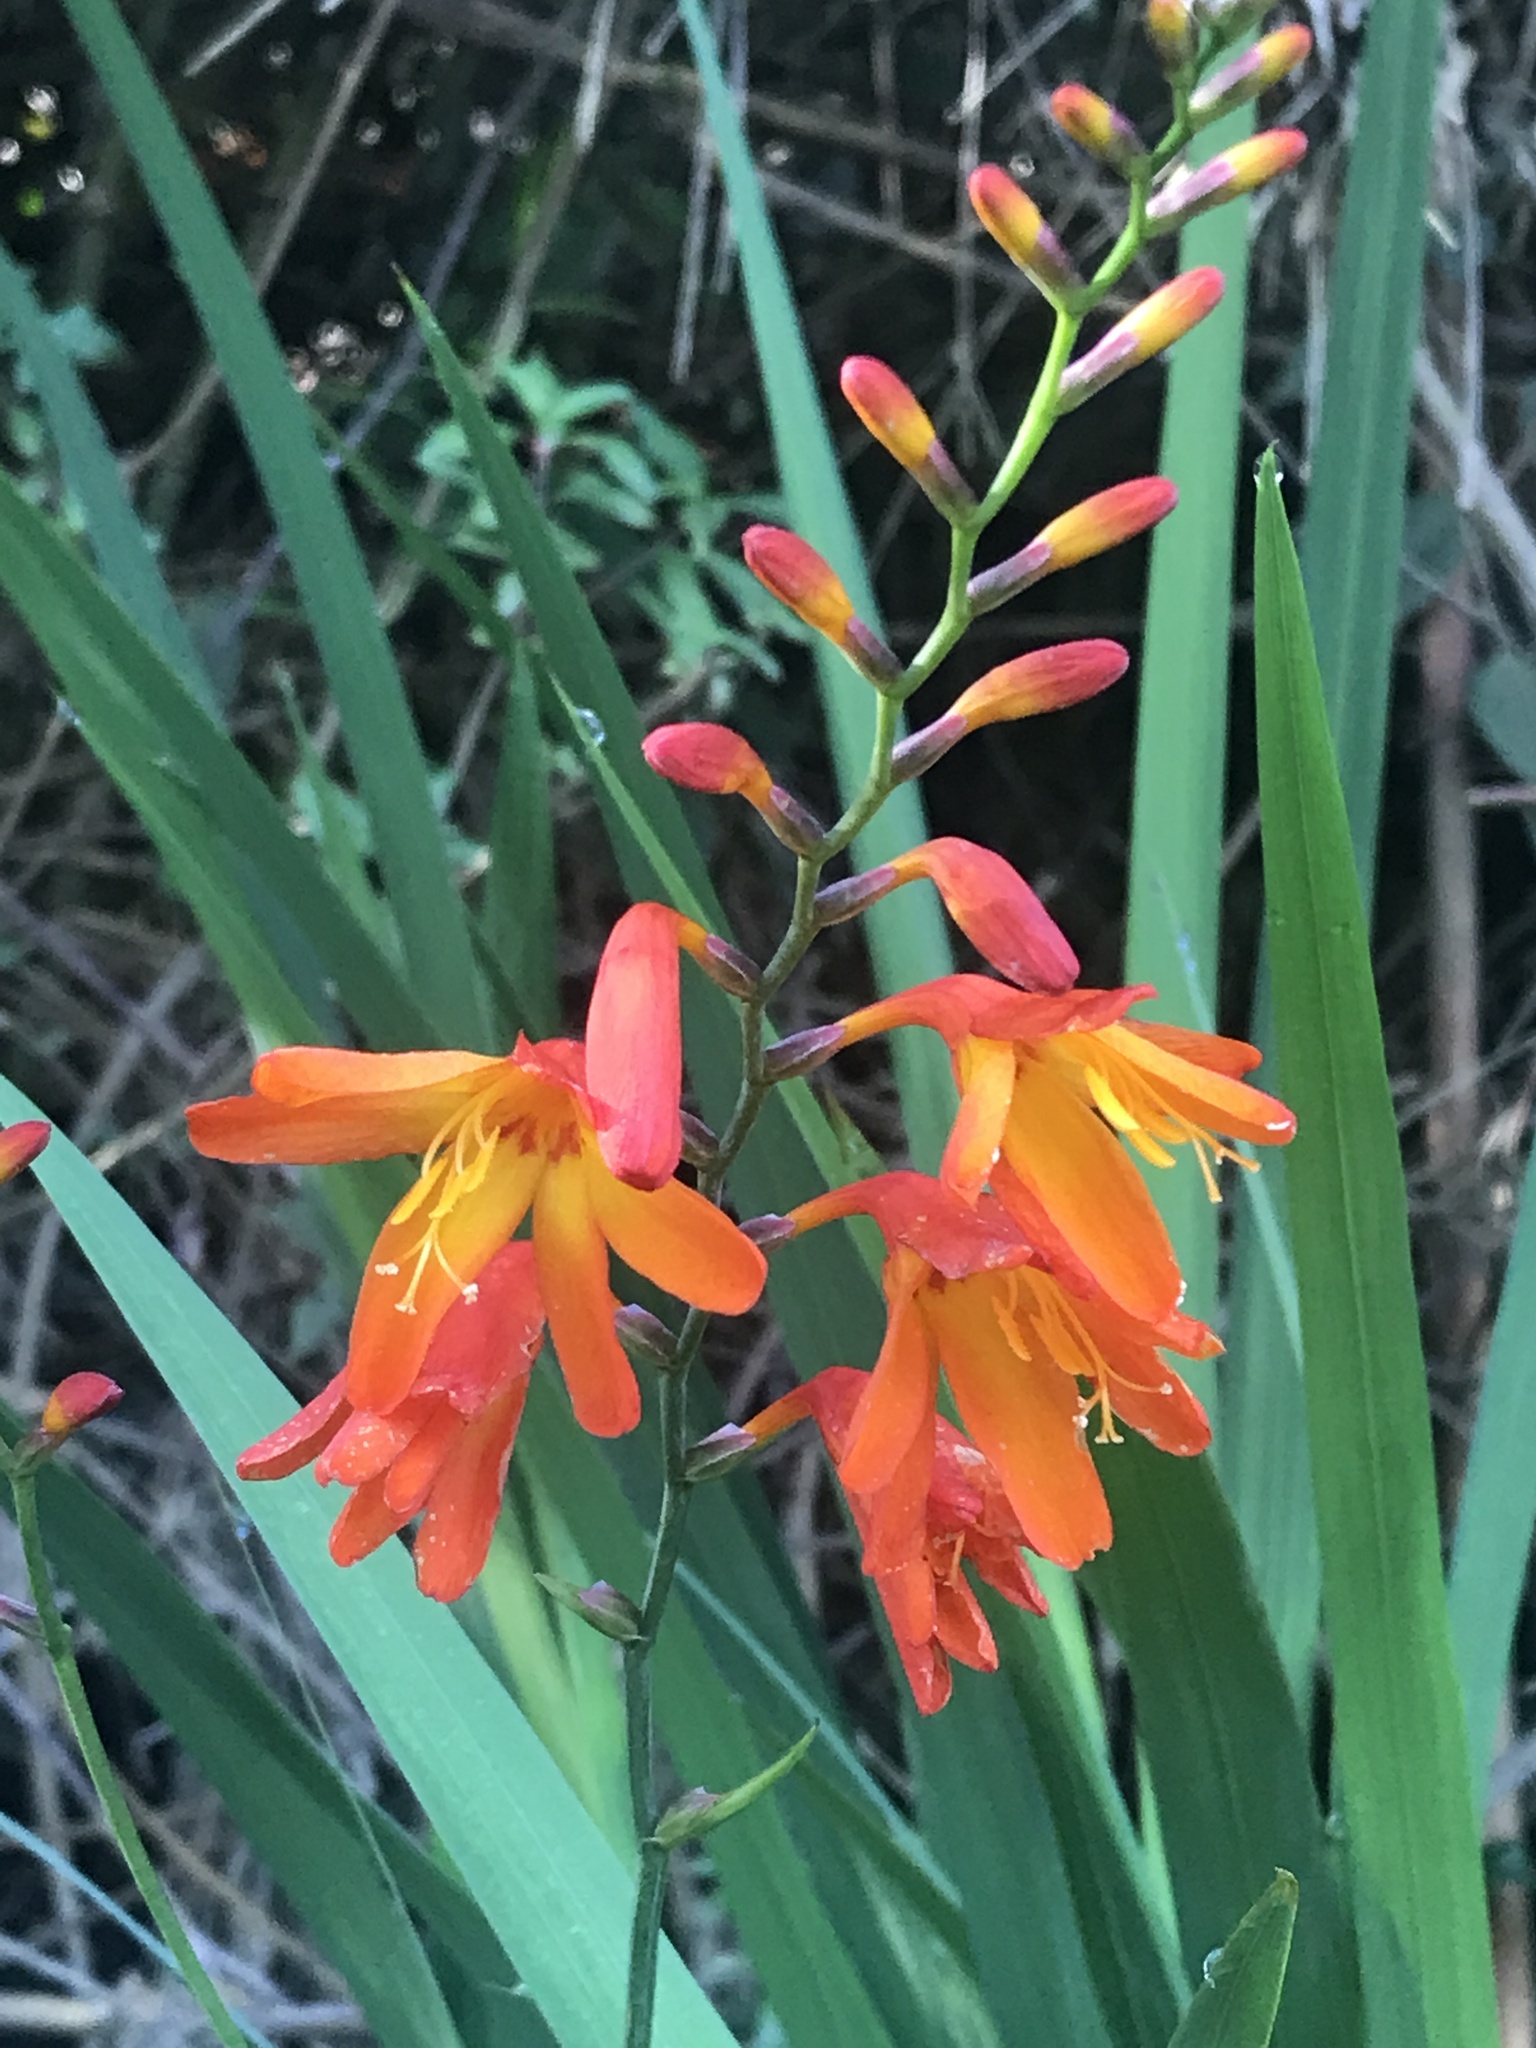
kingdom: Plantae
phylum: Tracheophyta
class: Liliopsida
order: Asparagales
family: Iridaceae
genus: Crocosmia
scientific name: Crocosmia crocosmiiflora
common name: Montbretia
